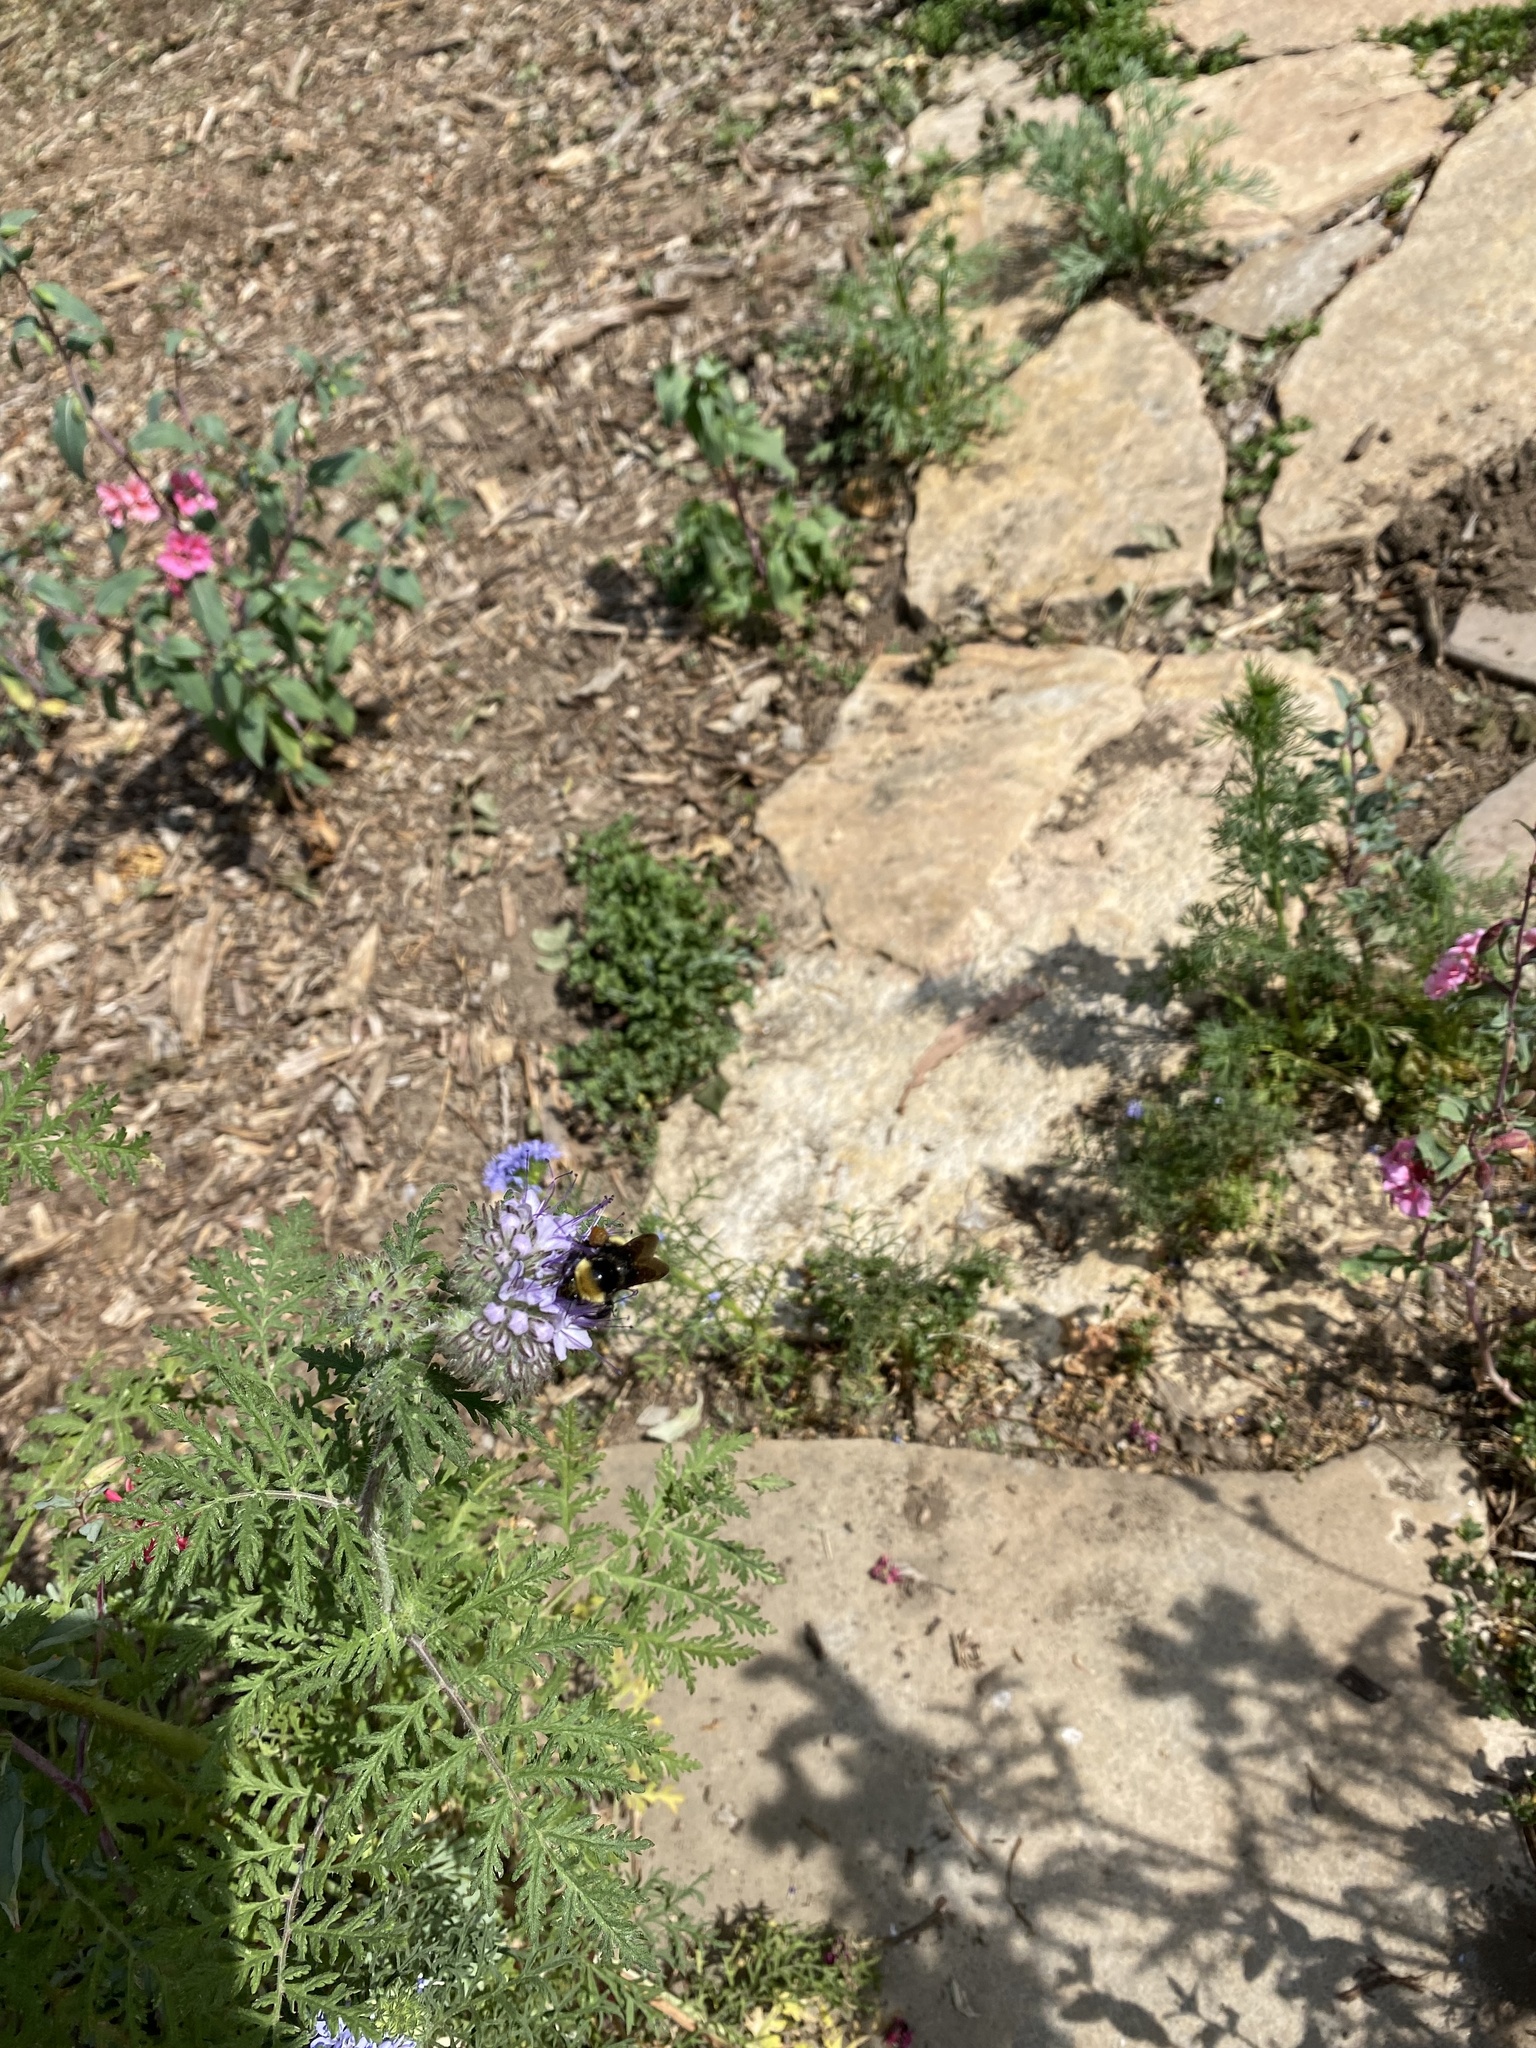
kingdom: Animalia
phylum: Arthropoda
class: Insecta
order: Hymenoptera
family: Apidae
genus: Bombus
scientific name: Bombus crotchii
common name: Crotch bumble bee
